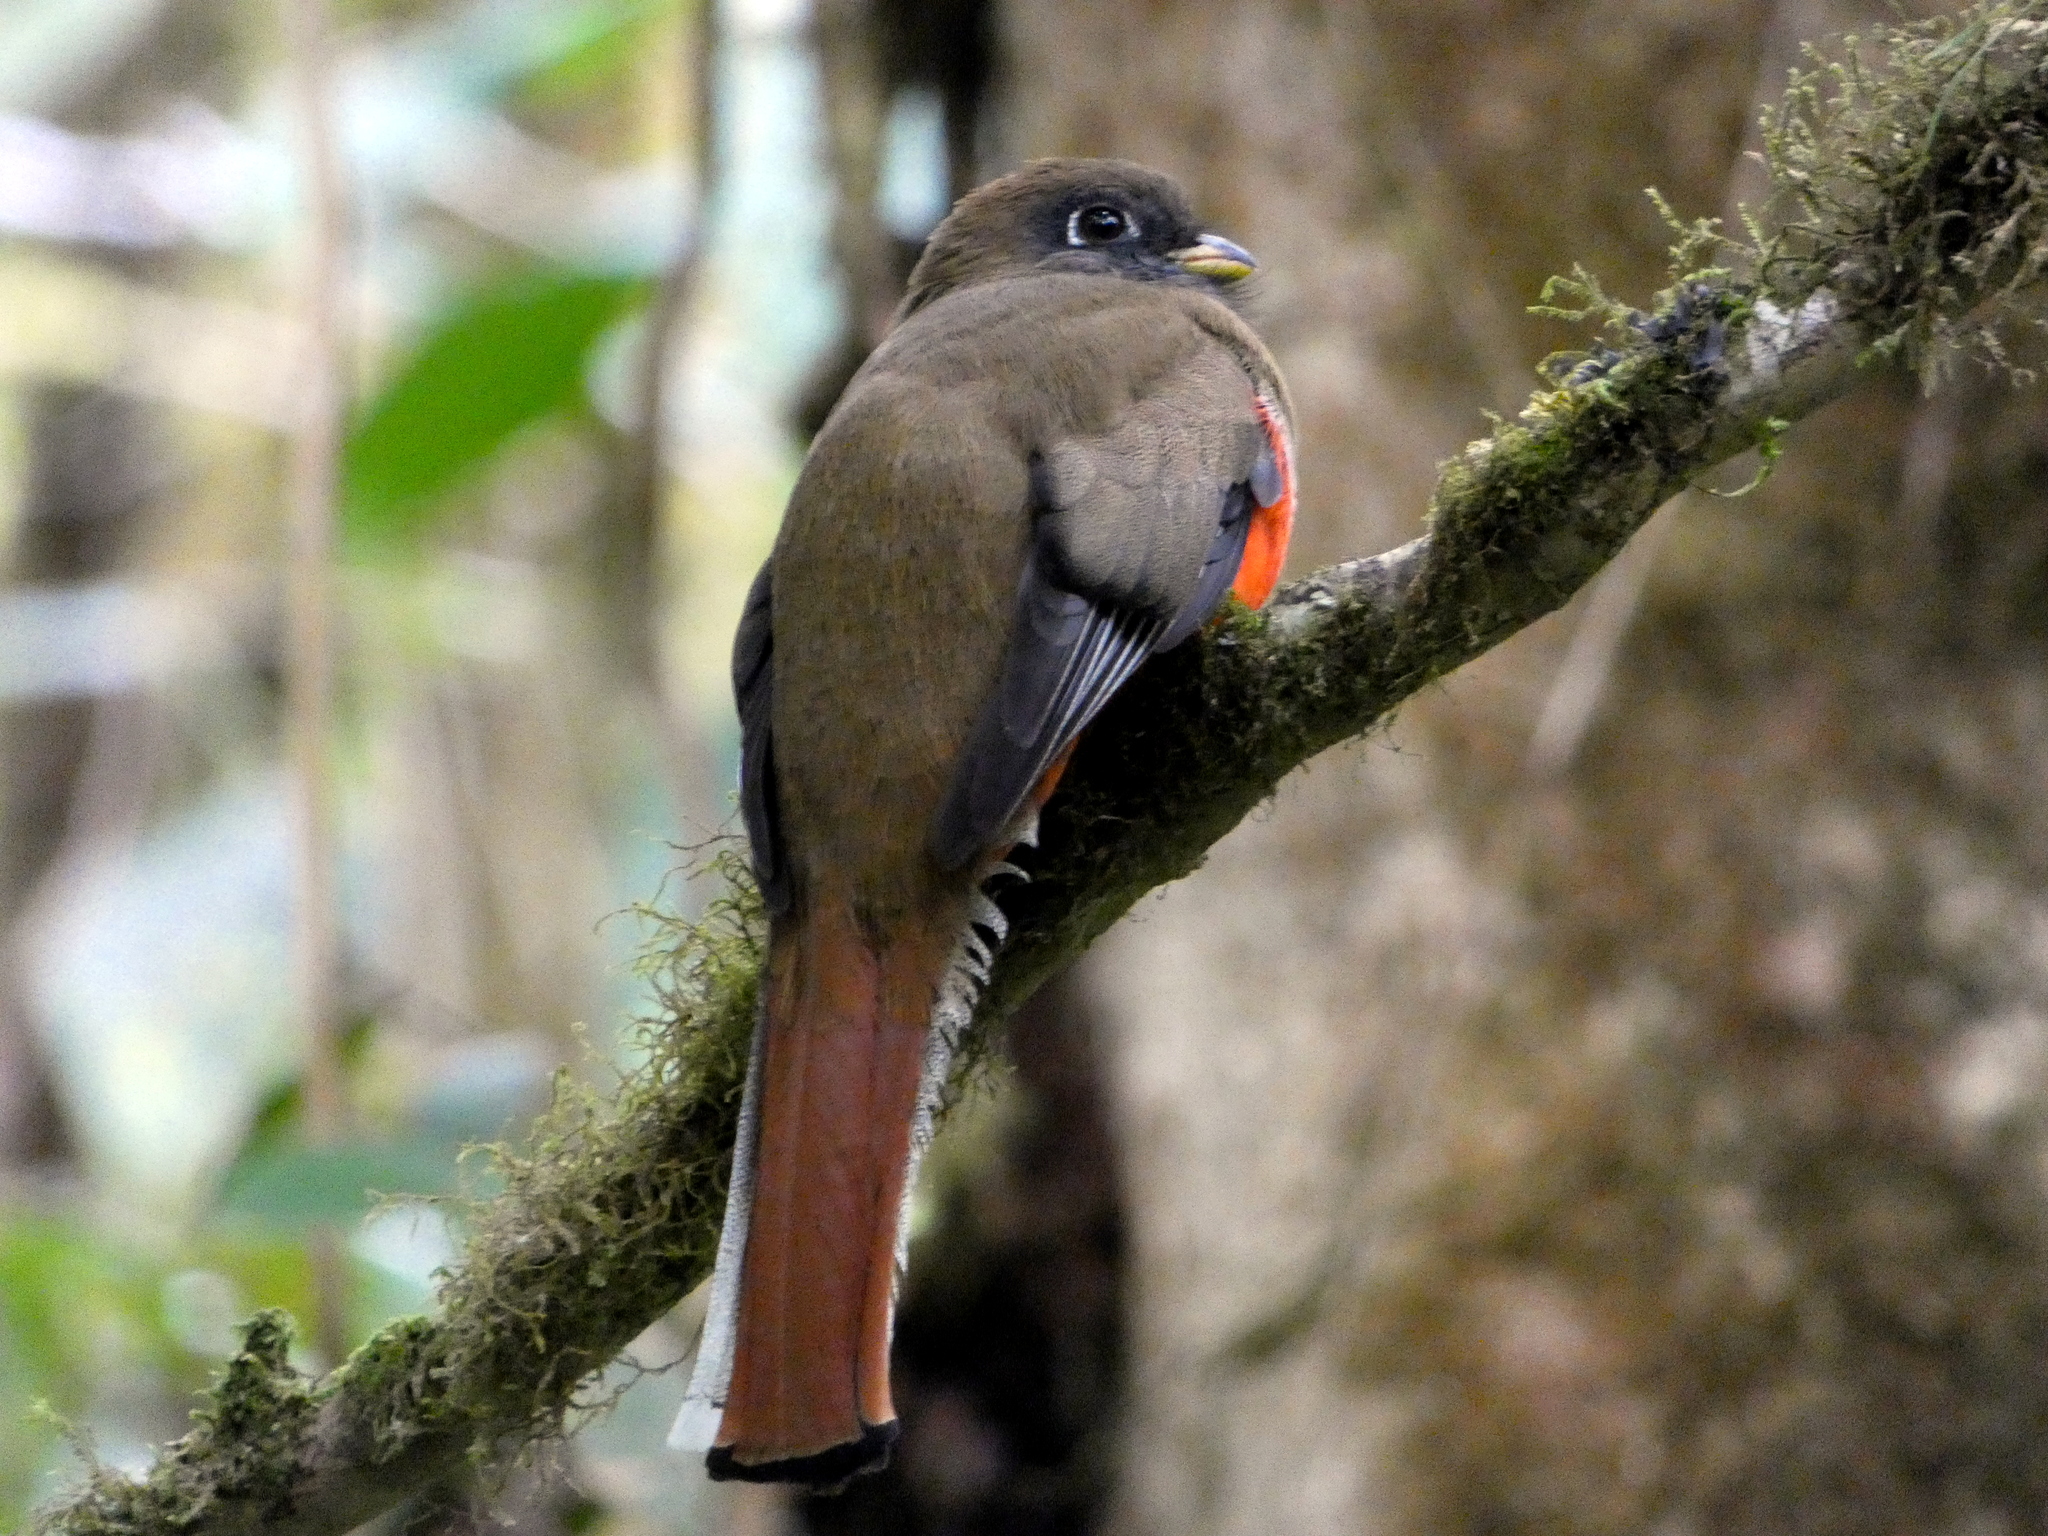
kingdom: Animalia
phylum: Chordata
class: Aves
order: Trogoniformes
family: Trogonidae
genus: Trogon
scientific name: Trogon collaris
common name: Collared trogon
